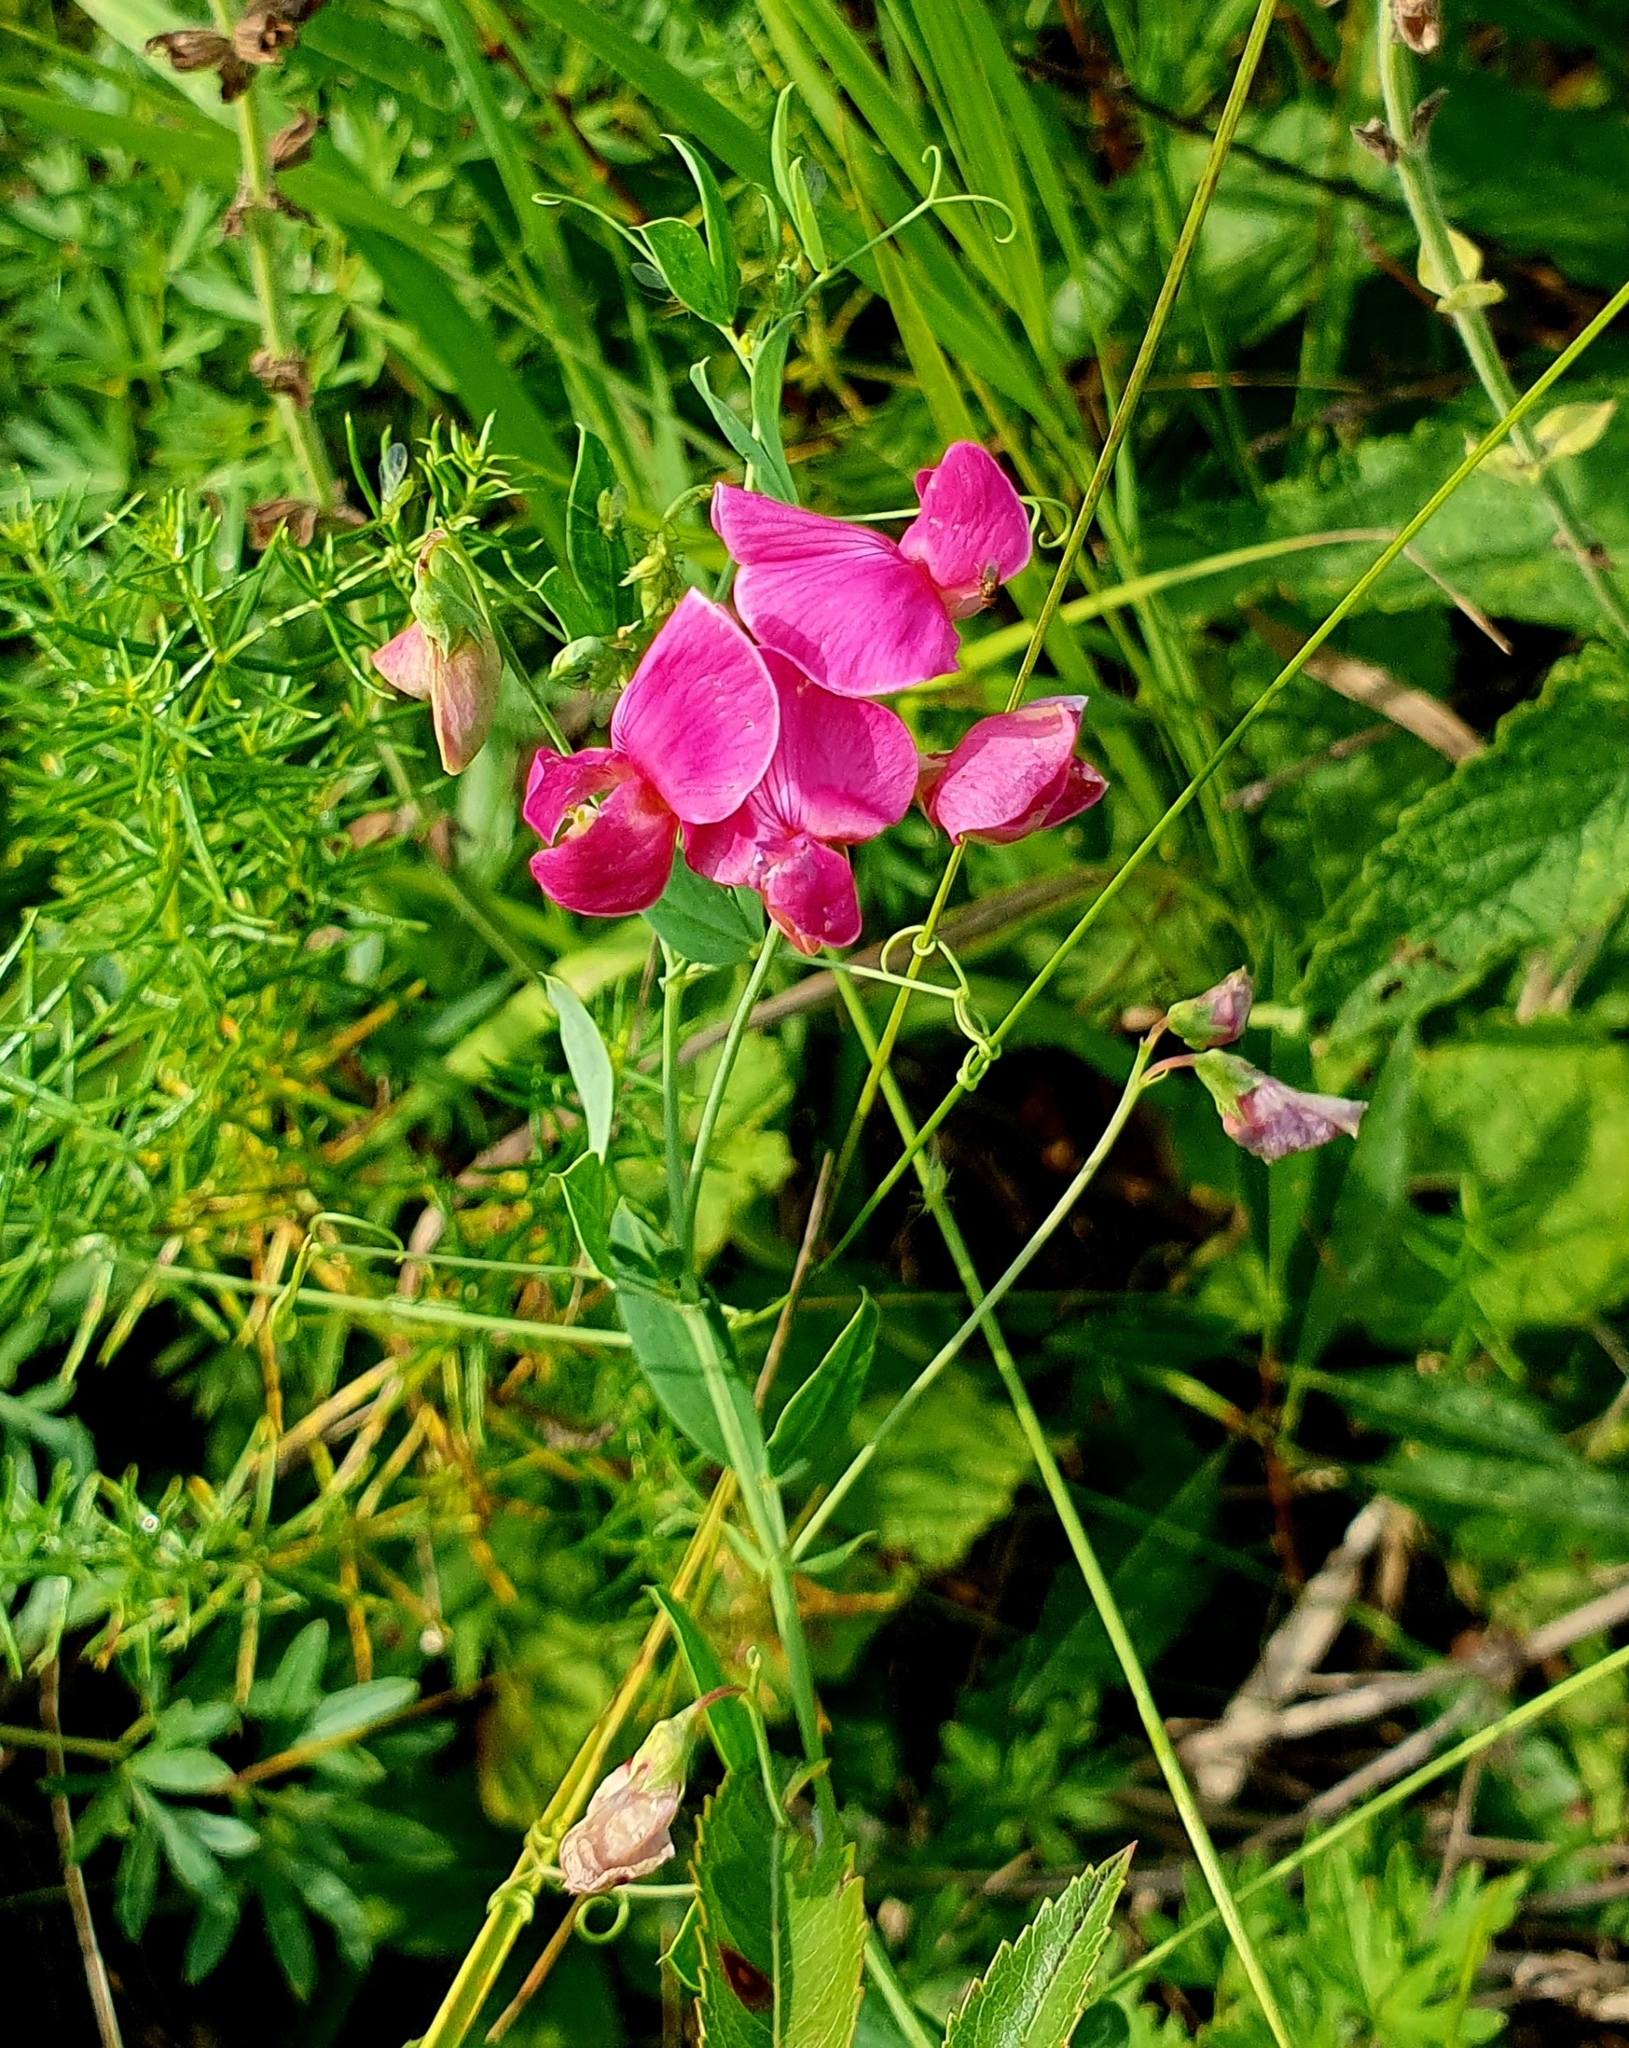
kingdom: Plantae
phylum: Tracheophyta
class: Magnoliopsida
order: Fabales
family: Fabaceae
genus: Lathyrus
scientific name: Lathyrus tuberosus
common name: Tuberous pea
